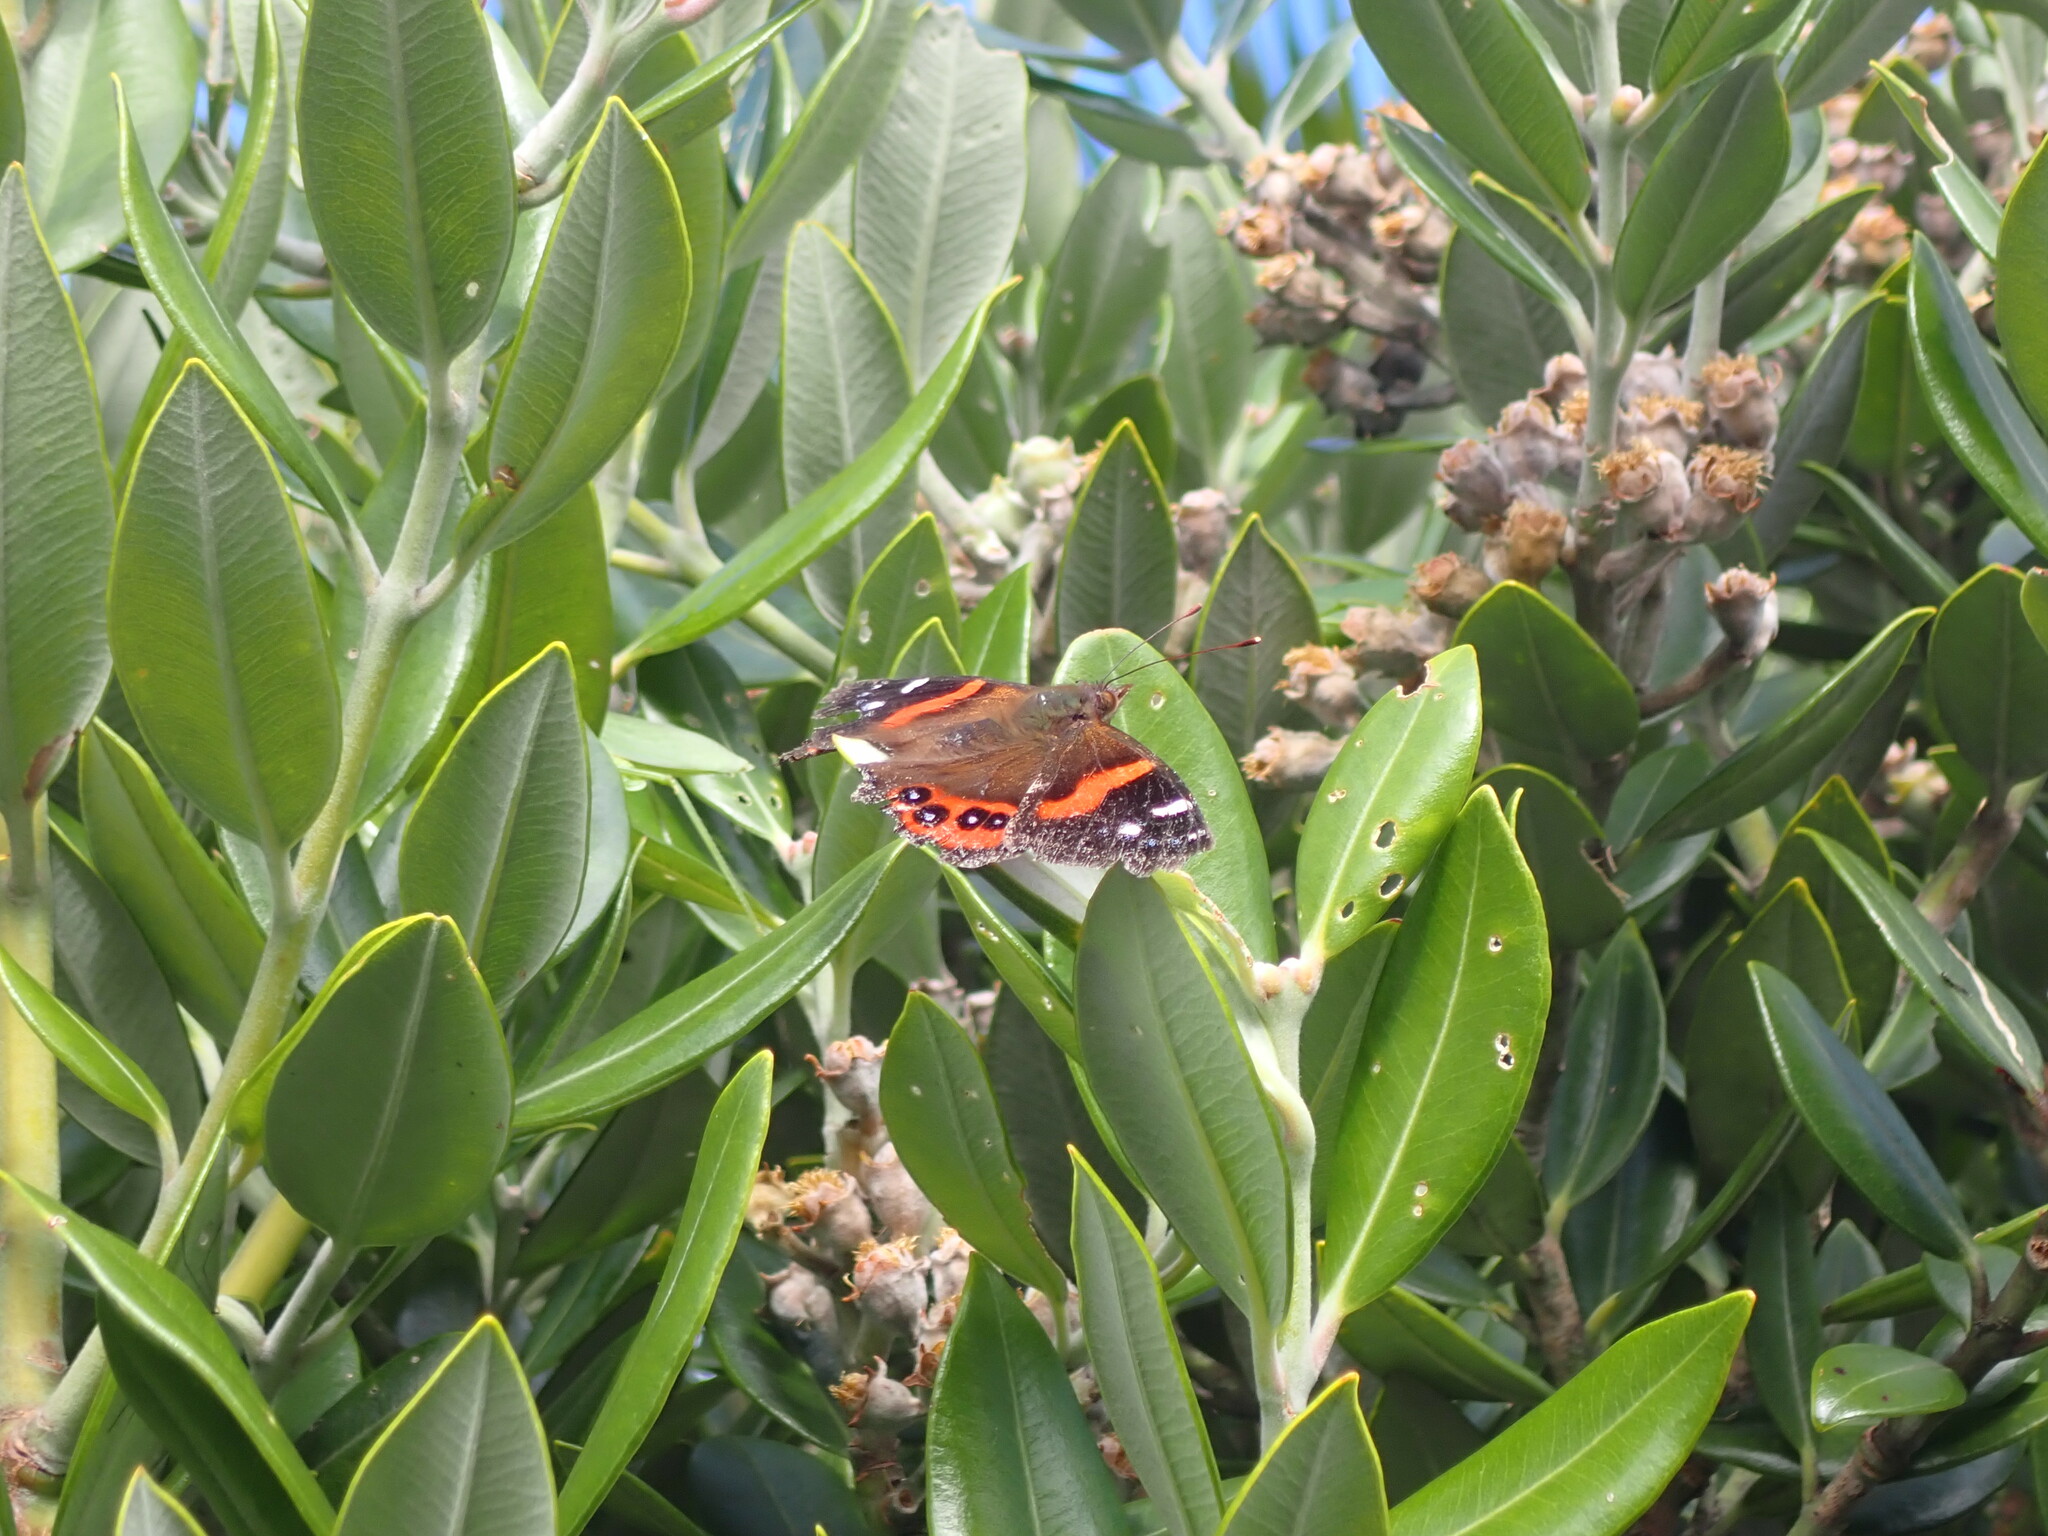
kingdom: Animalia
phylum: Arthropoda
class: Insecta
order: Lepidoptera
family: Nymphalidae
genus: Vanessa
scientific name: Vanessa gonerilla
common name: New zealand red admiral
